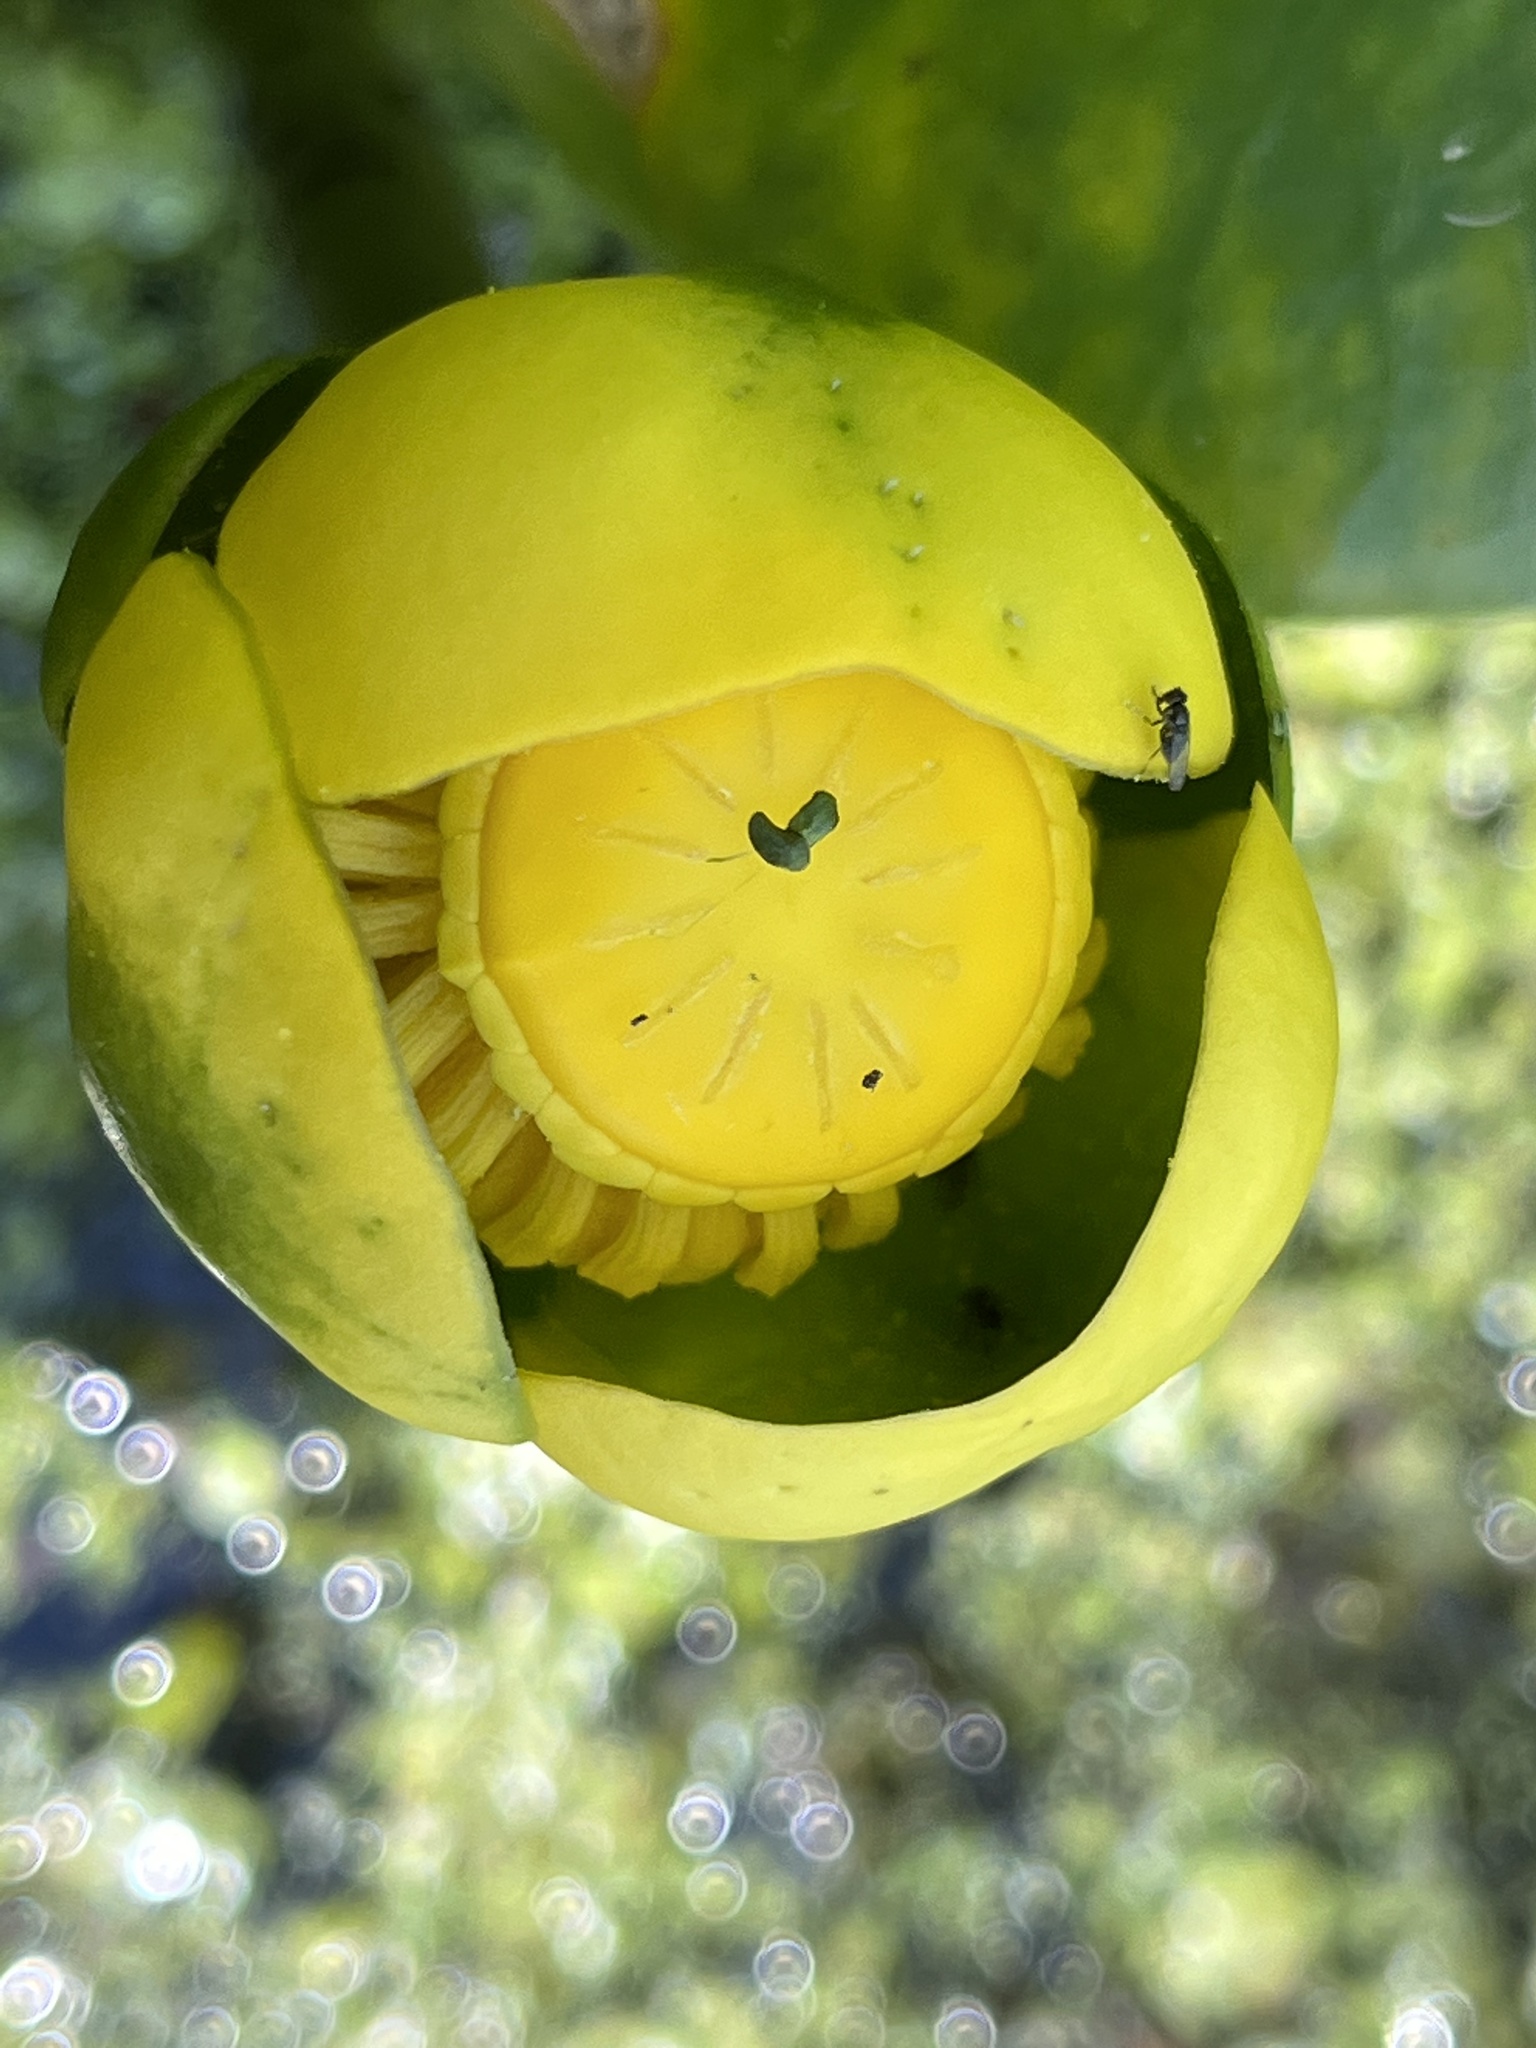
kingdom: Plantae
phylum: Tracheophyta
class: Magnoliopsida
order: Nymphaeales
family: Nymphaeaceae
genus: Nuphar
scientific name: Nuphar advena
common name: Spatter-dock
